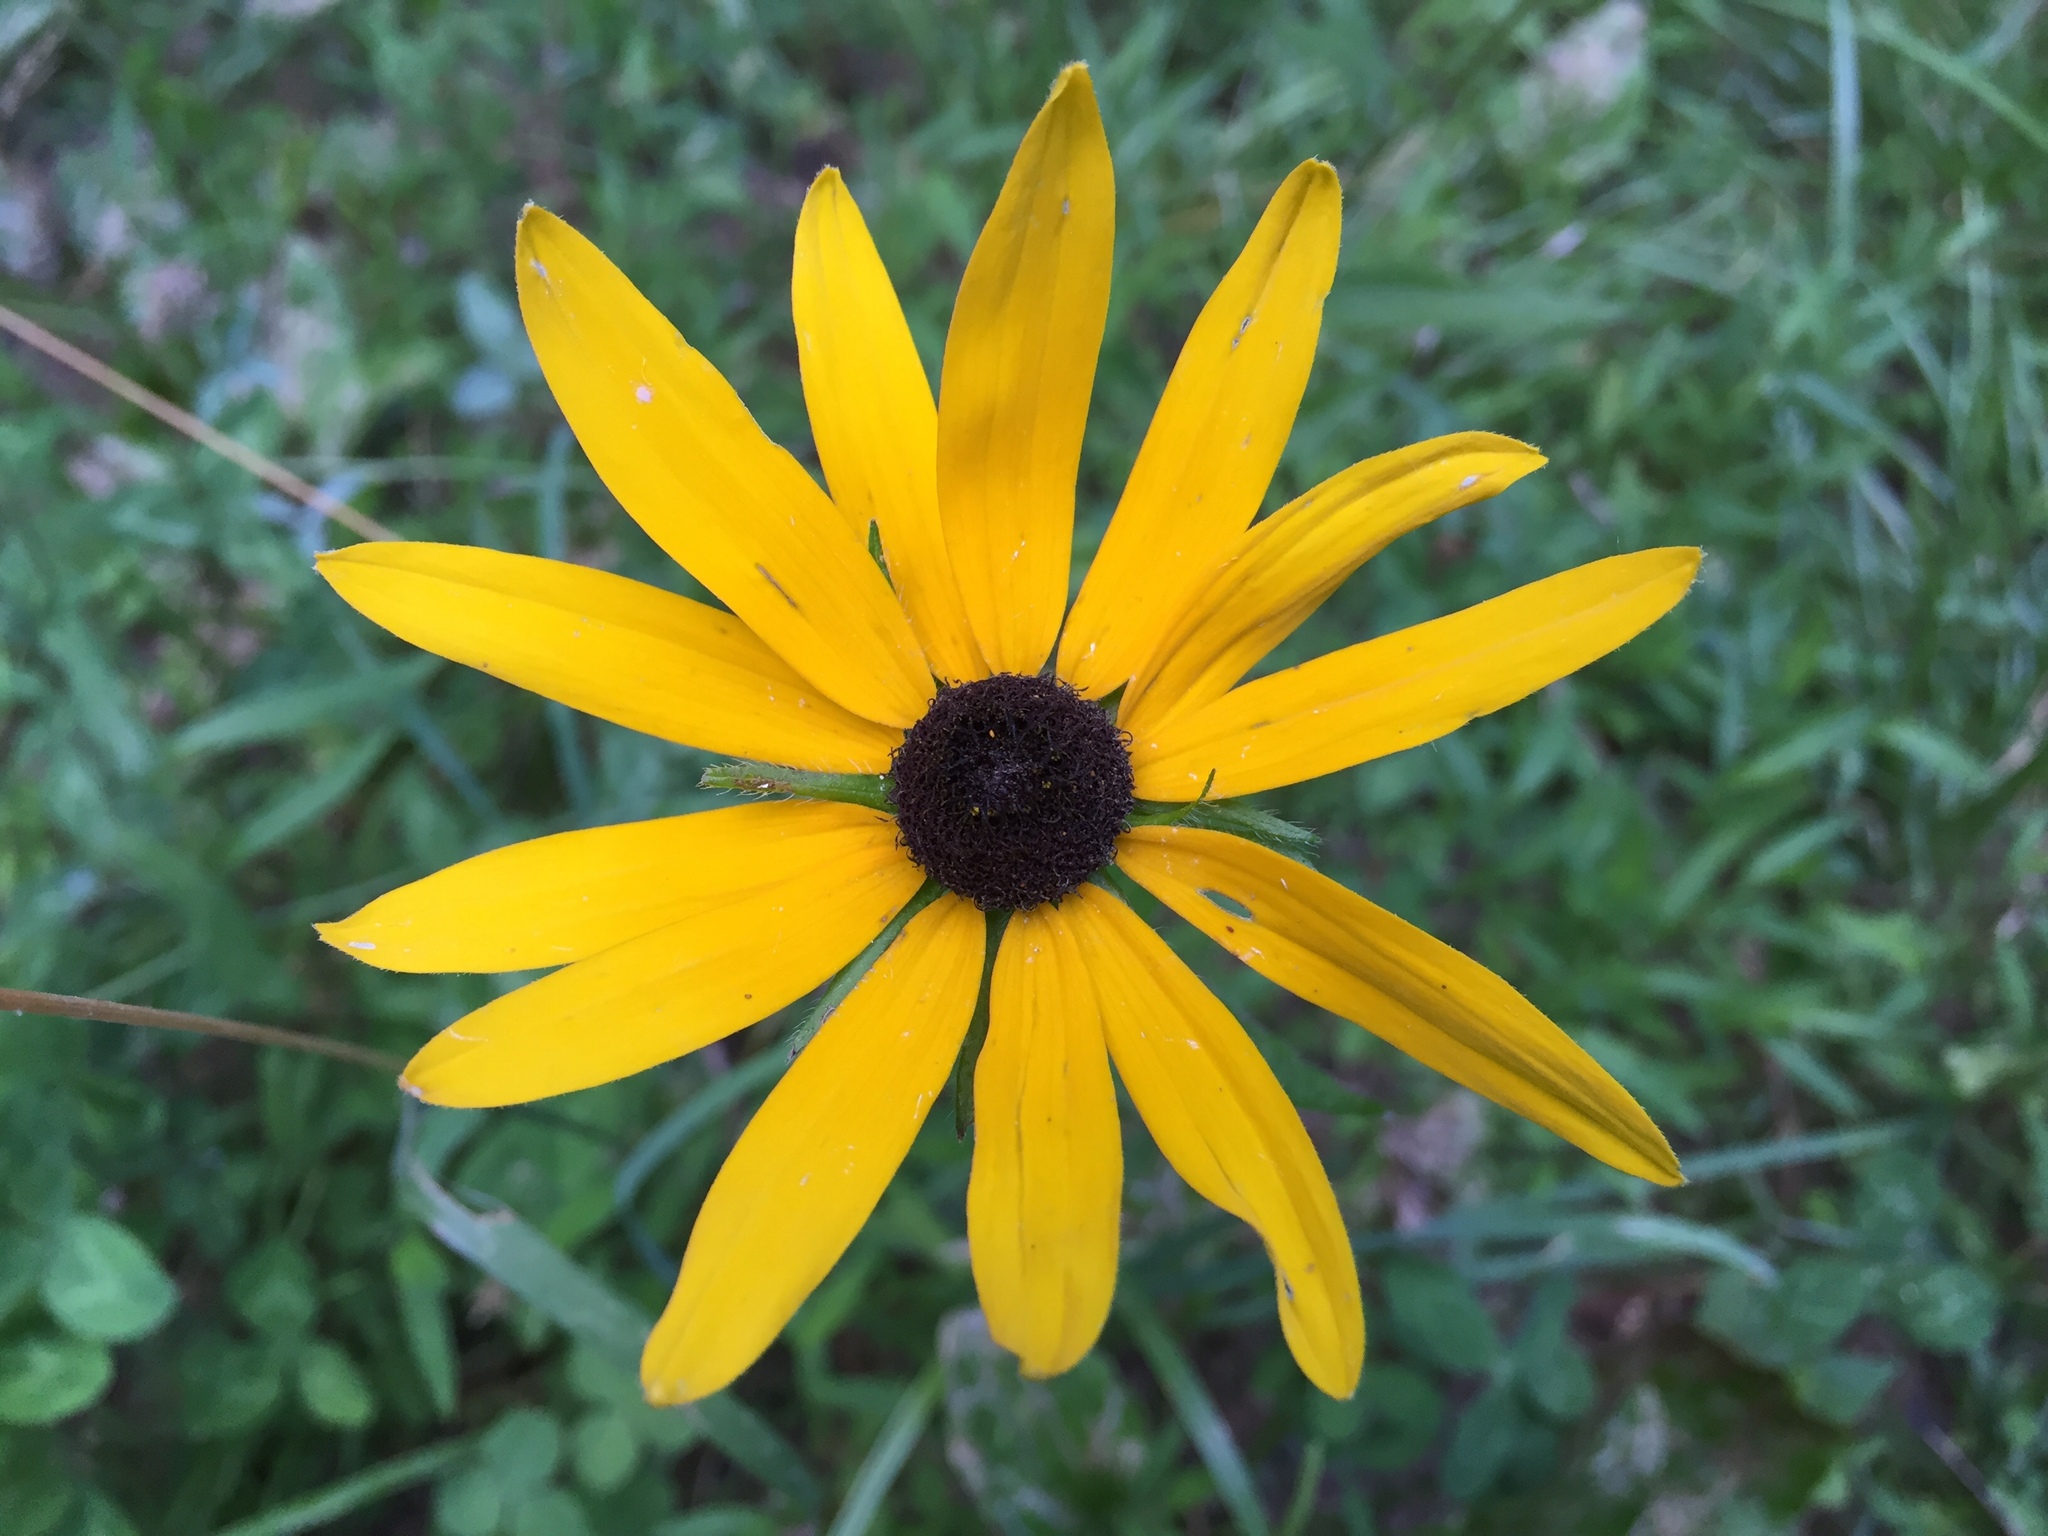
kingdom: Plantae
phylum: Tracheophyta
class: Magnoliopsida
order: Asterales
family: Asteraceae
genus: Rudbeckia
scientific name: Rudbeckia hirta
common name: Black-eyed-susan
